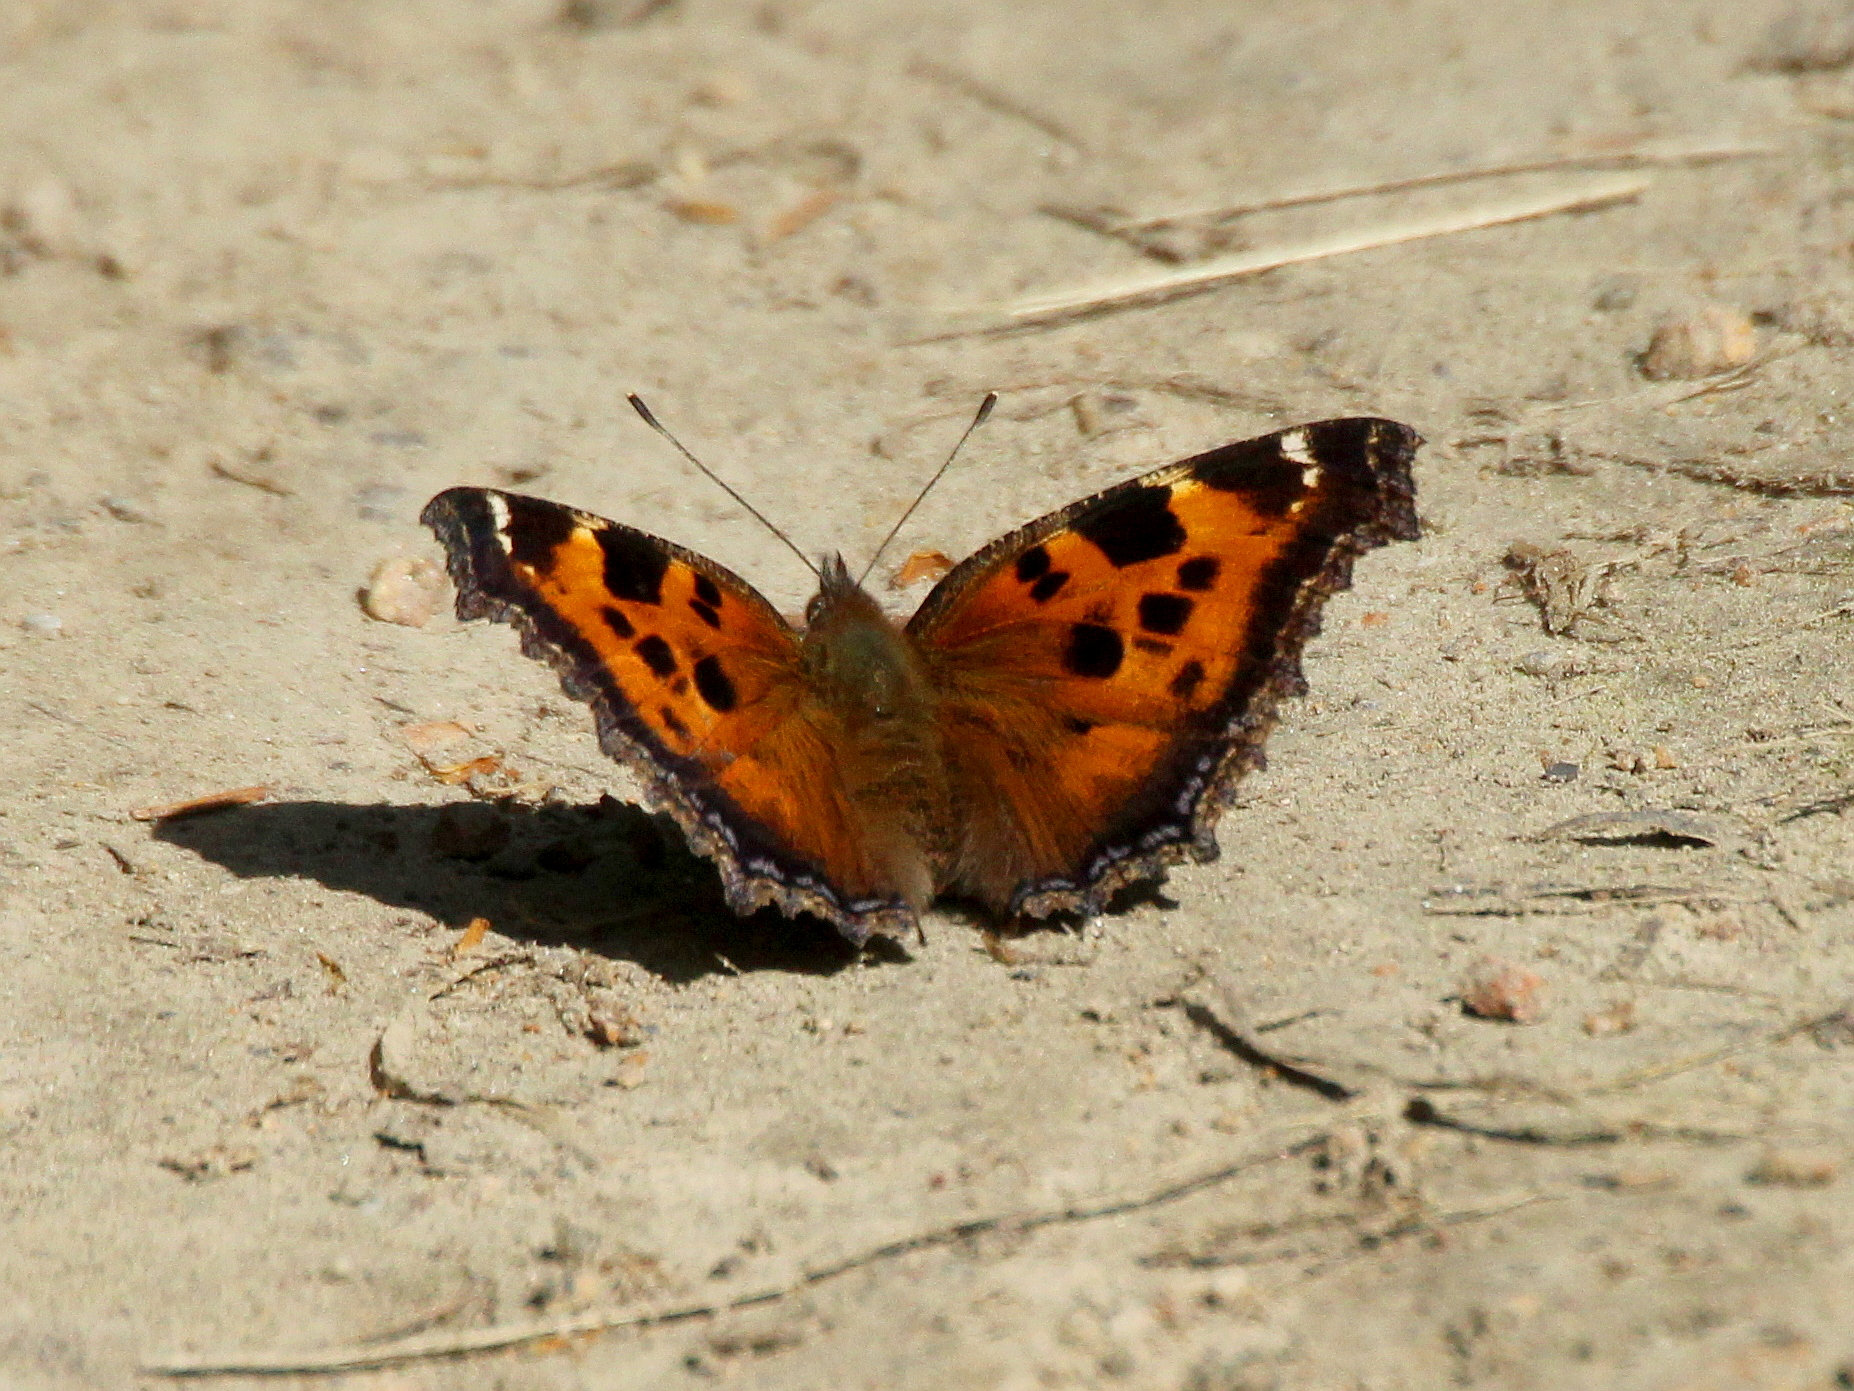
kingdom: Animalia
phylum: Arthropoda
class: Insecta
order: Lepidoptera
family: Nymphalidae
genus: Nymphalis
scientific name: Nymphalis xanthomelas
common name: Scarce tortoiseshell
